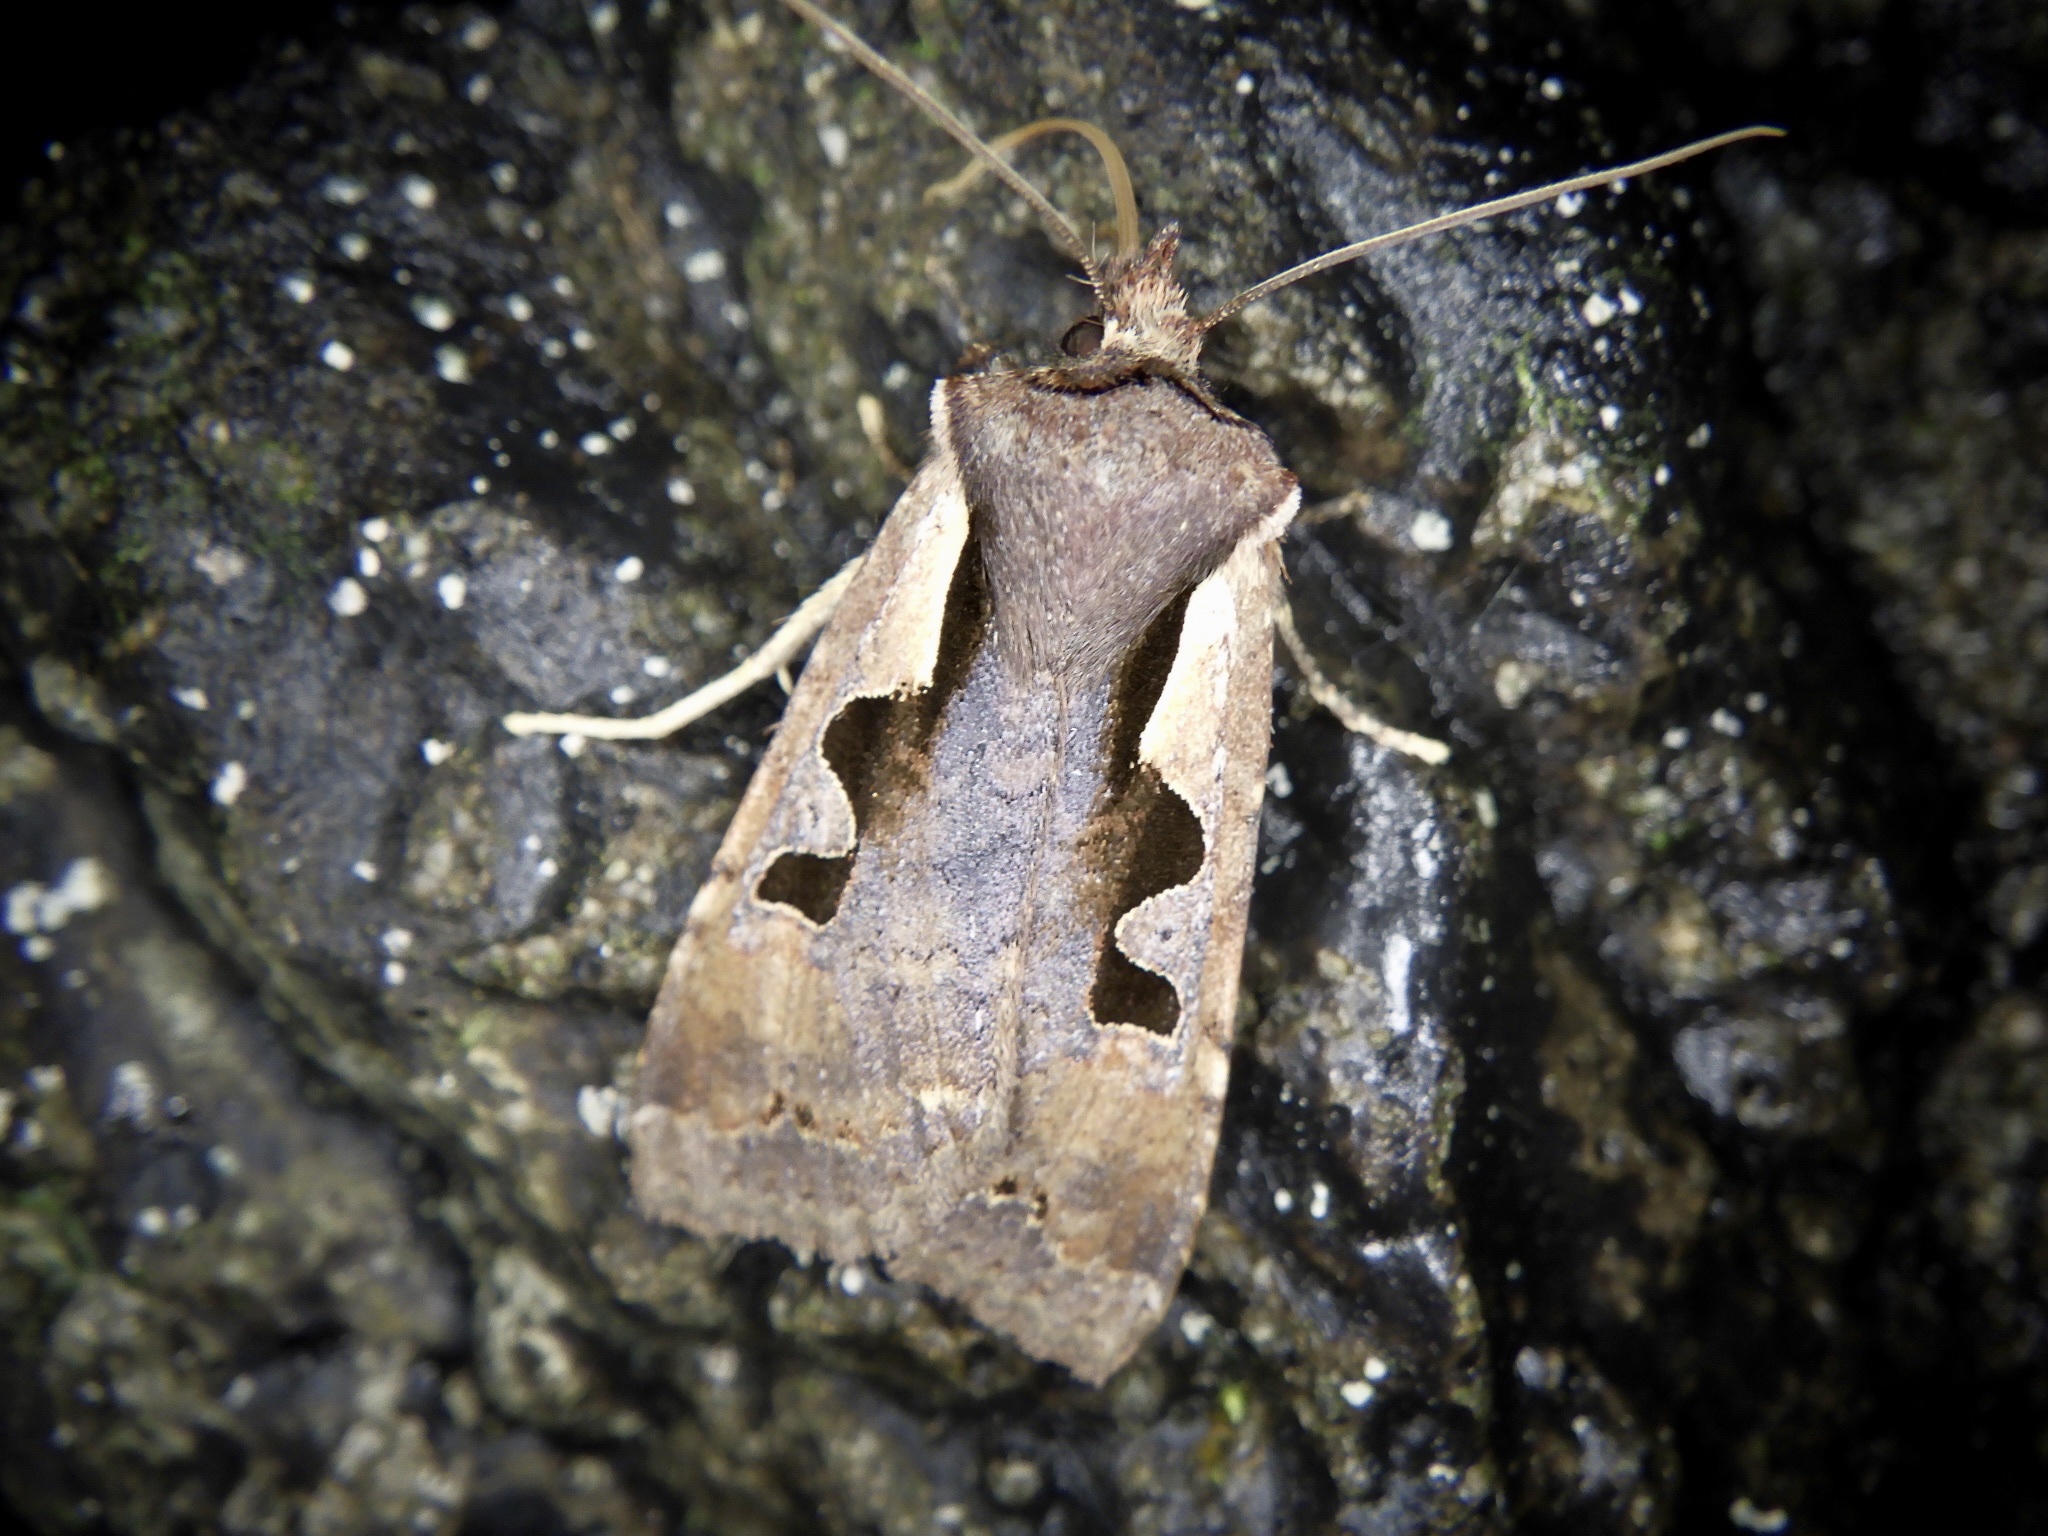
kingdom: Animalia
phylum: Arthropoda
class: Insecta
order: Lepidoptera
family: Noctuidae
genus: Sugitania
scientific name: Sugitania lepida
